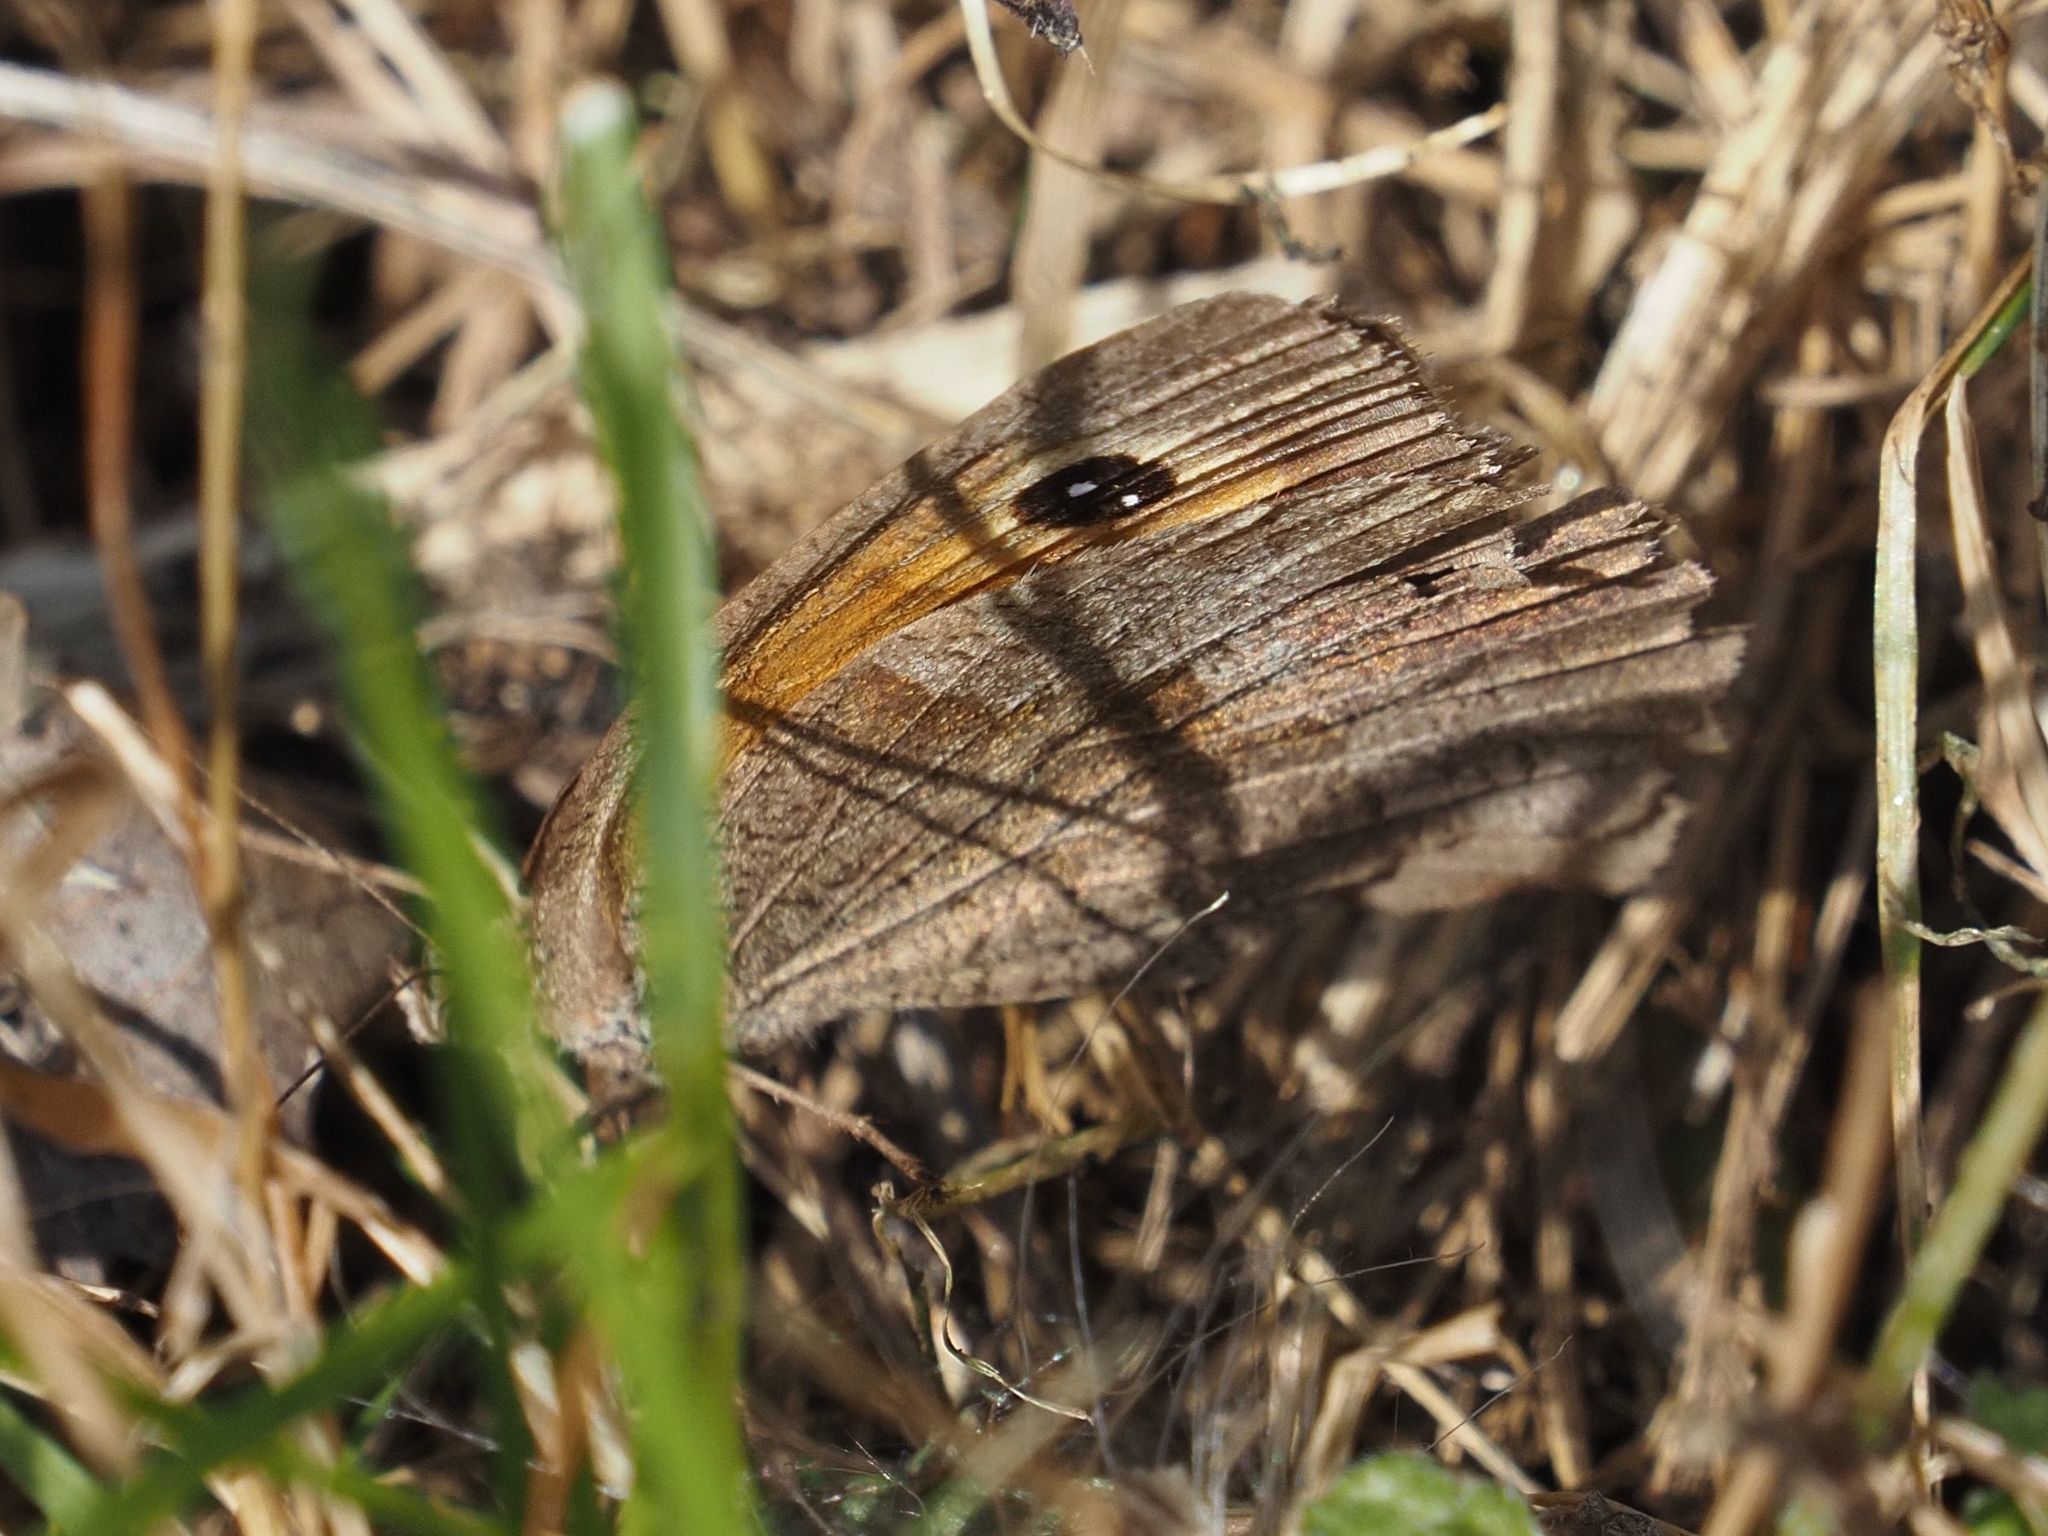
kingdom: Animalia
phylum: Arthropoda
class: Insecta
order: Lepidoptera
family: Nymphalidae
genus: Maniola
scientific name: Maniola jurtina
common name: Meadow brown
